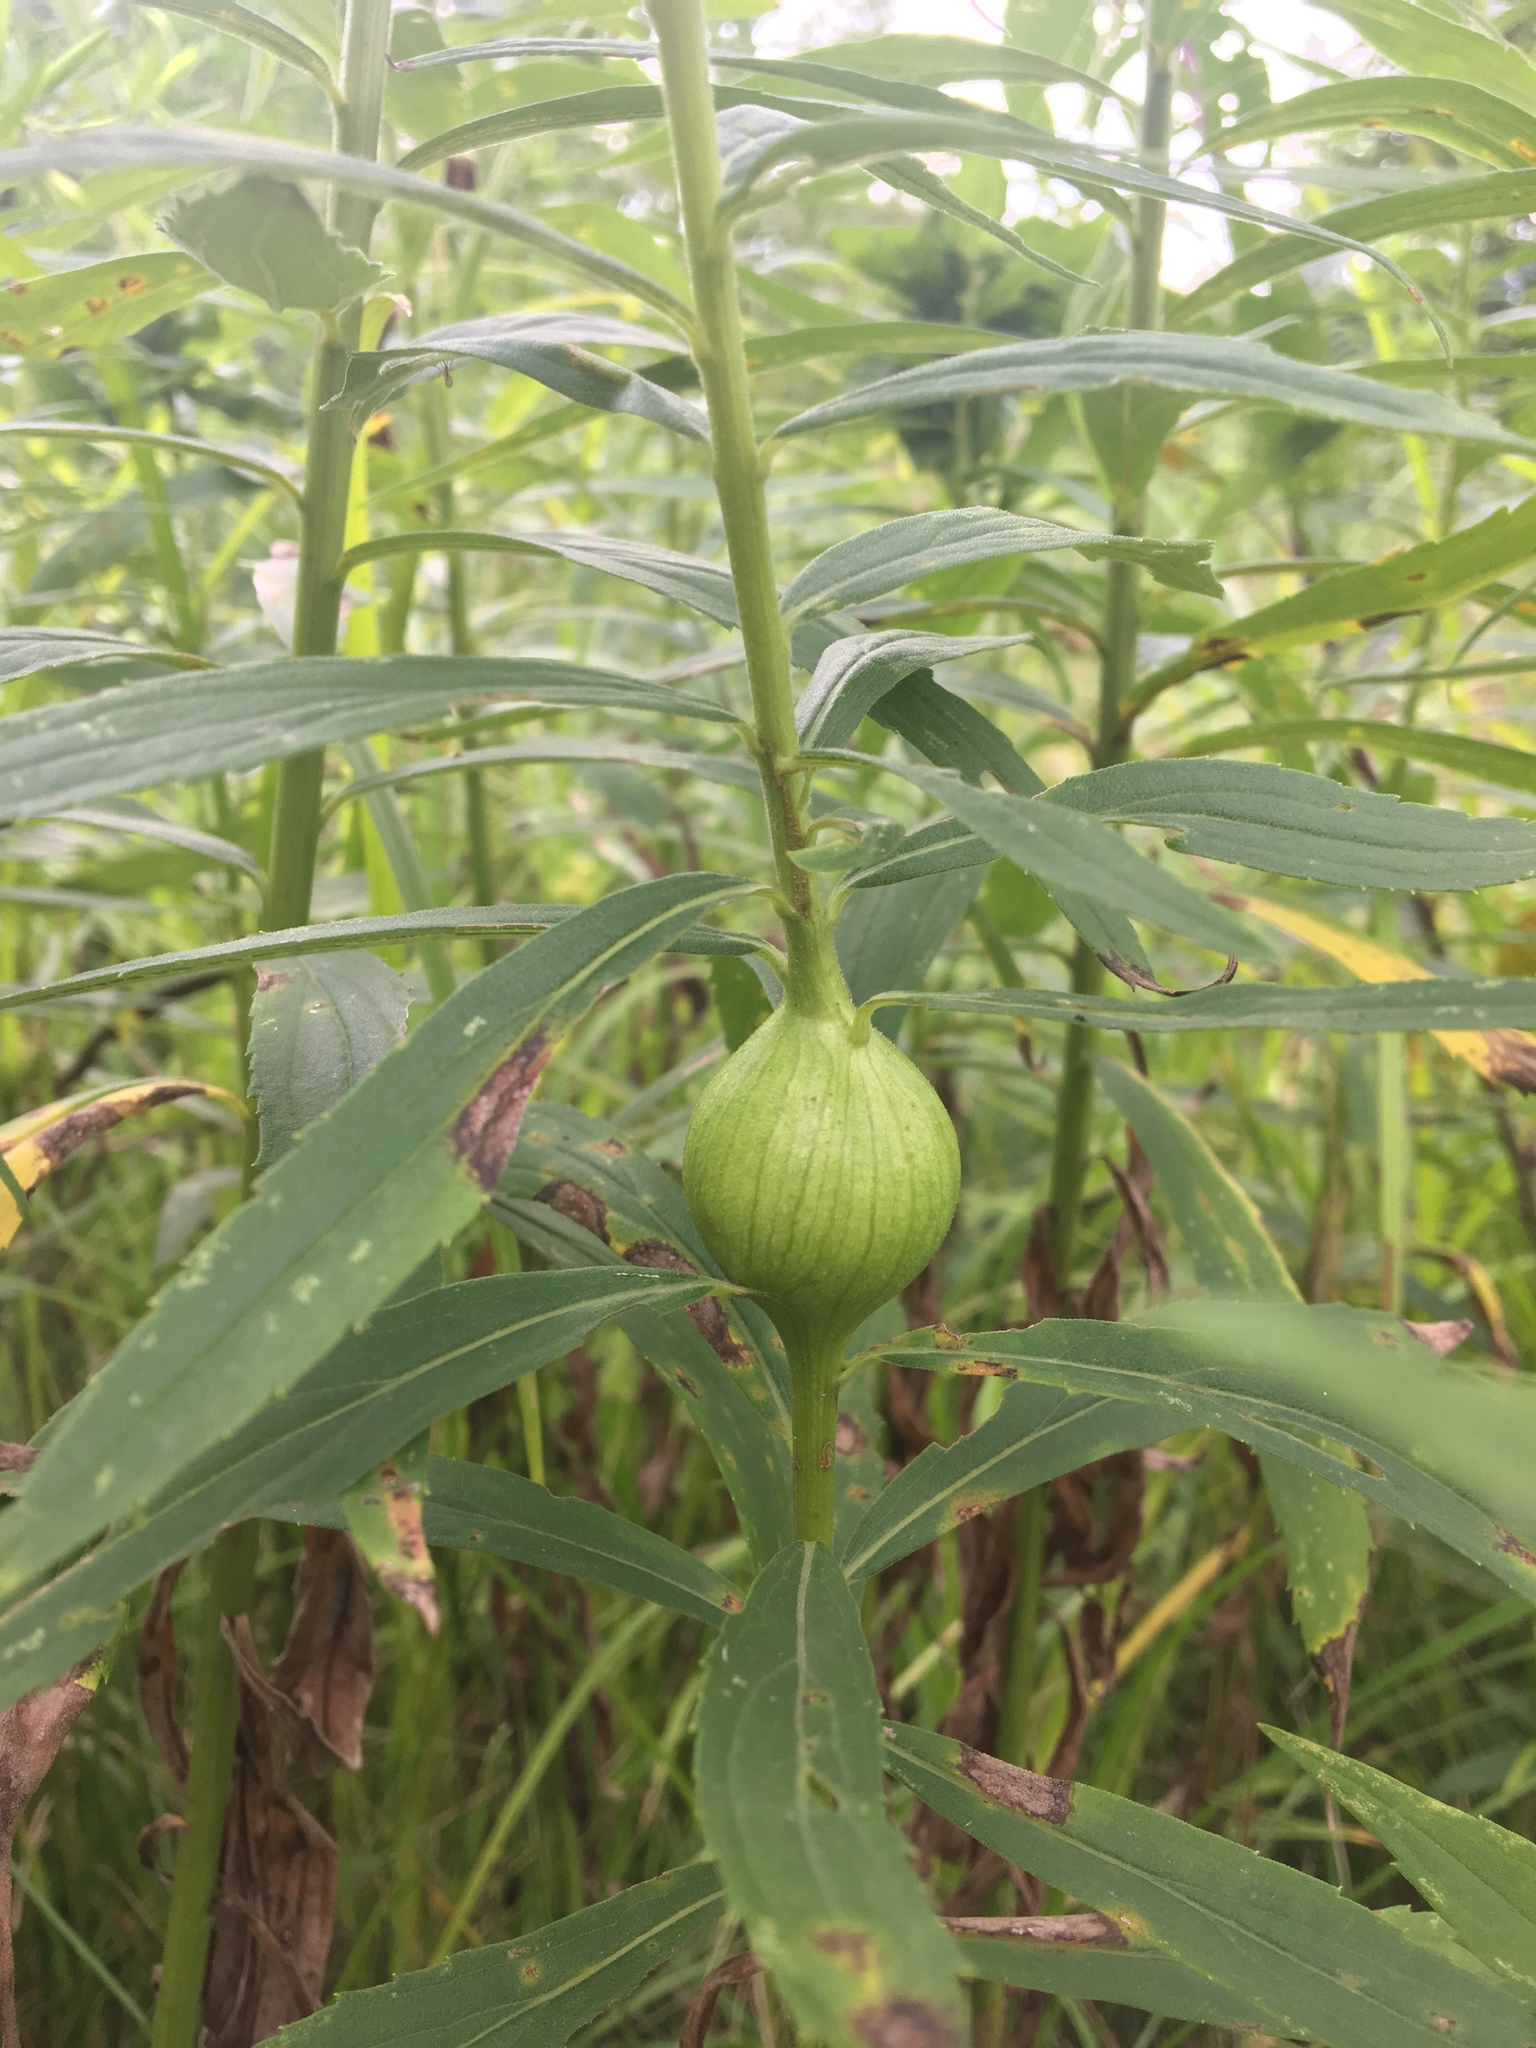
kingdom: Animalia
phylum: Arthropoda
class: Insecta
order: Diptera
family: Tephritidae
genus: Eurosta
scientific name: Eurosta solidaginis
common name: Goldenrod gall fly
